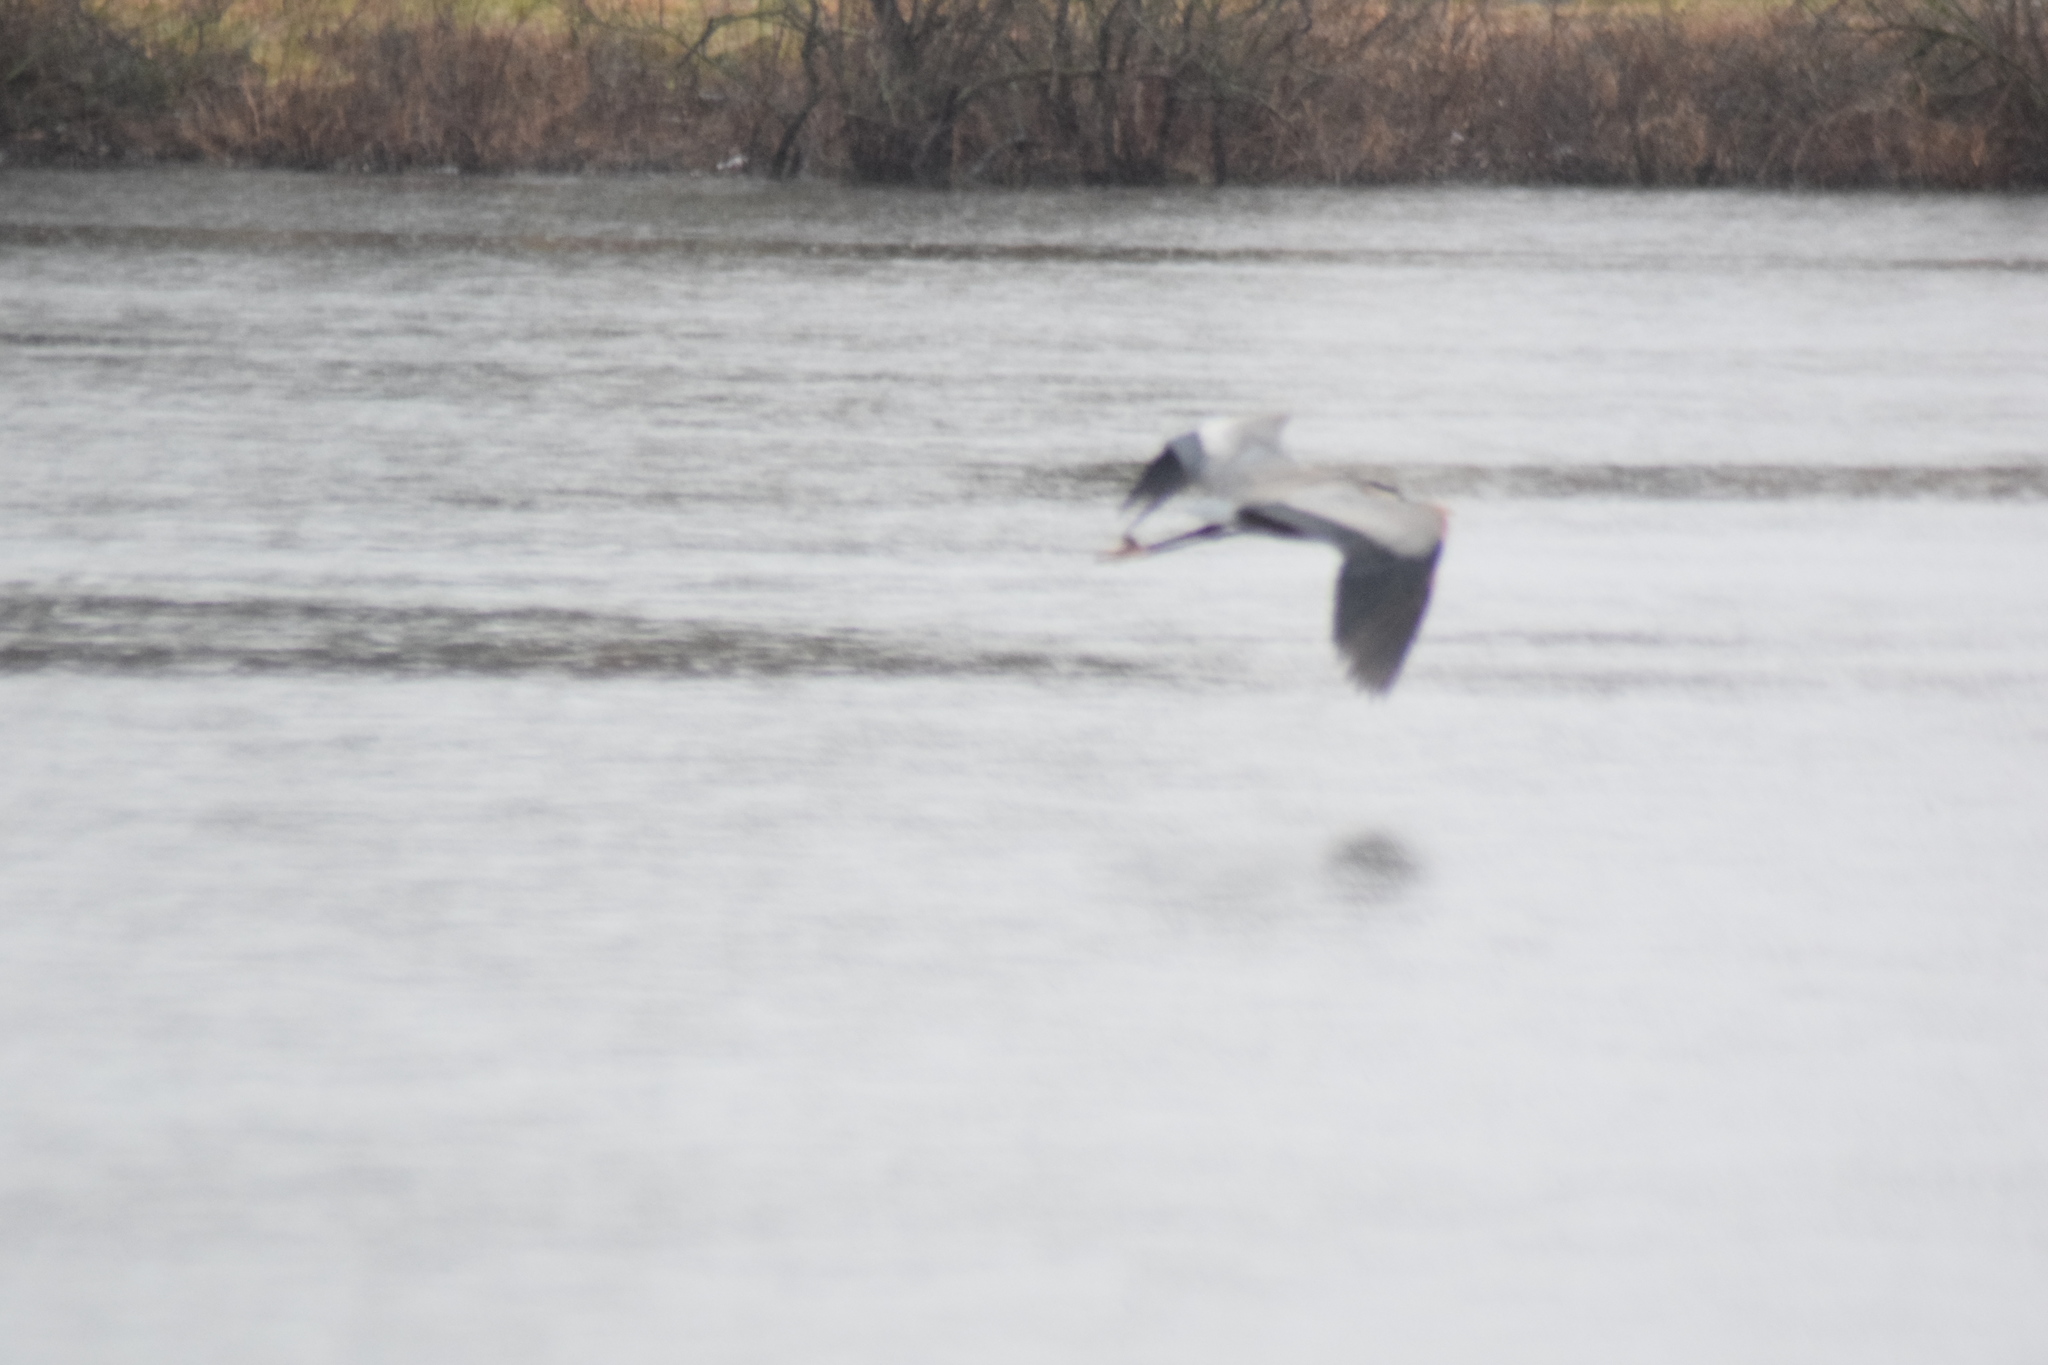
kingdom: Animalia
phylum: Chordata
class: Aves
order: Pelecaniformes
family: Ardeidae
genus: Ardea
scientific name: Ardea herodias
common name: Great blue heron
